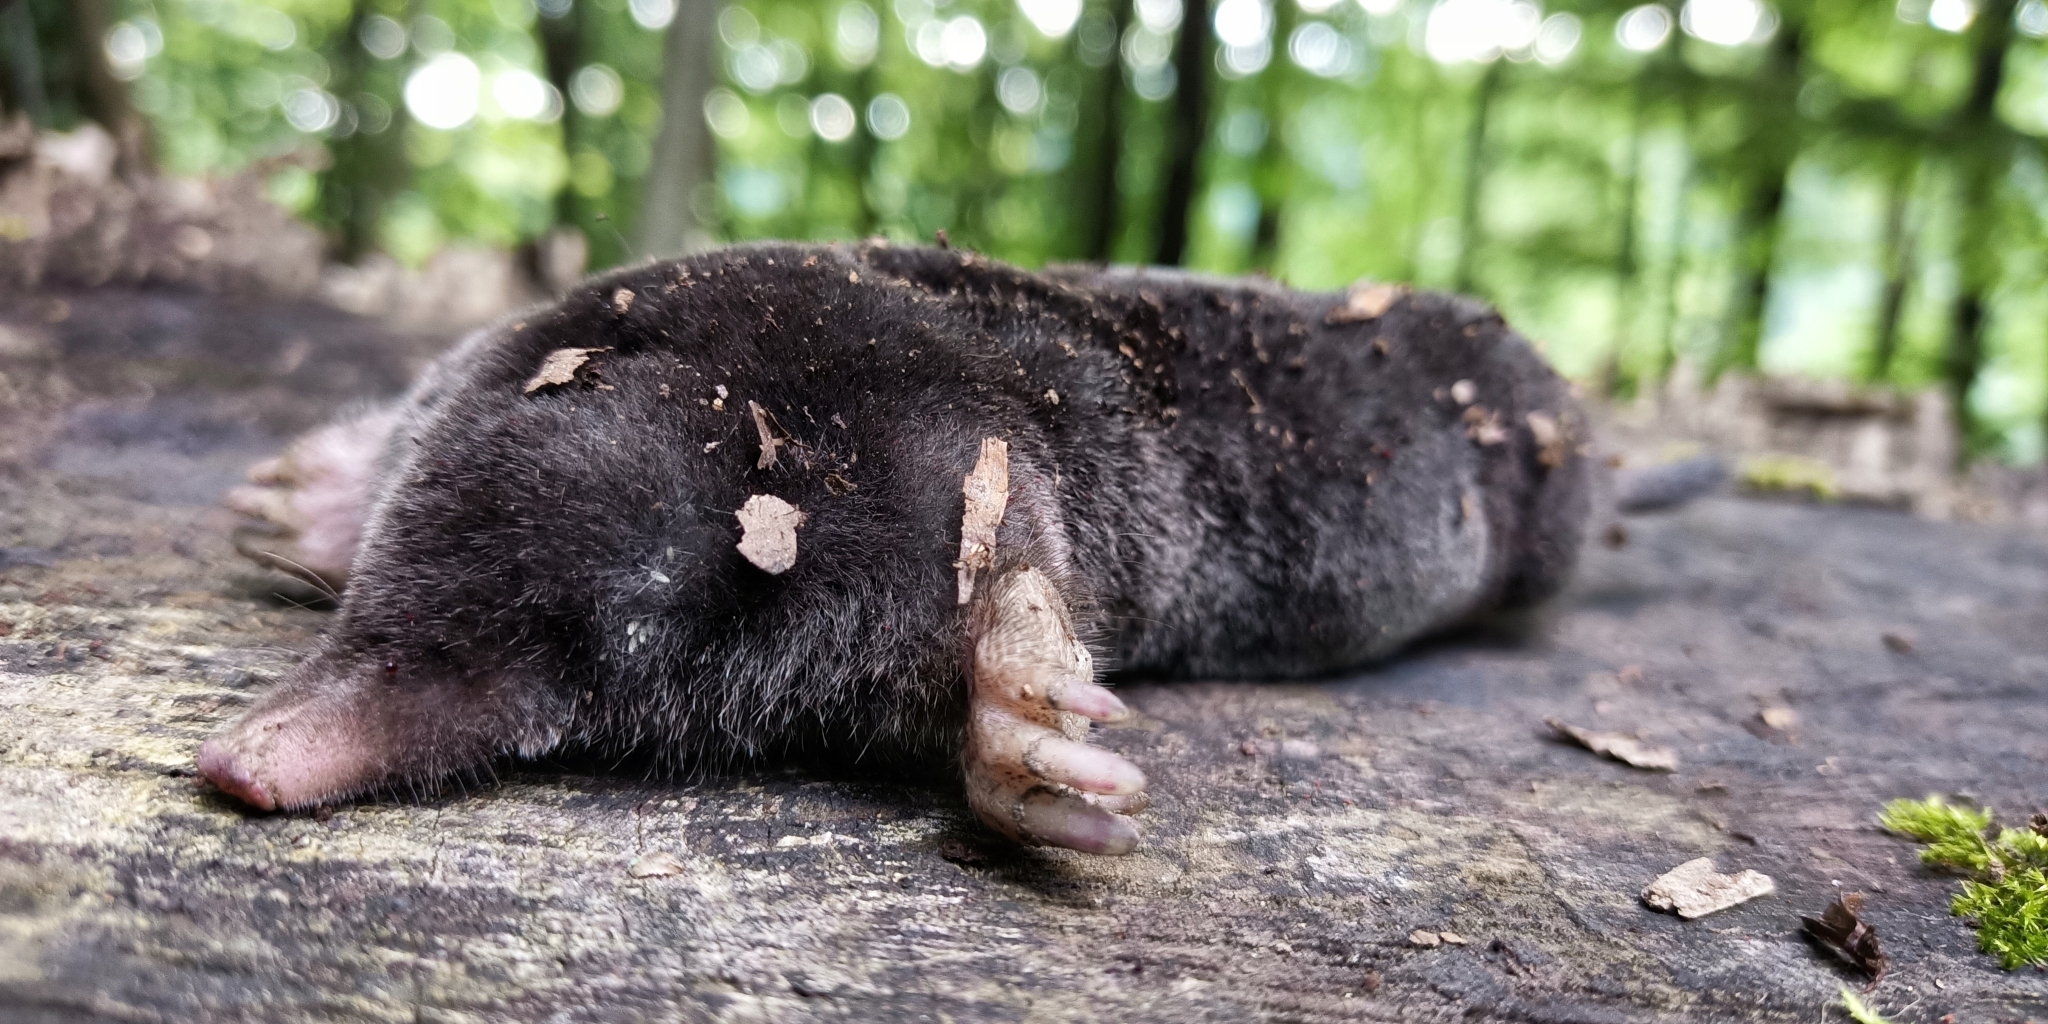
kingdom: Animalia
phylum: Chordata
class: Mammalia
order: Soricomorpha
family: Talpidae
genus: Talpa
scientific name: Talpa europaea
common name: European mole
